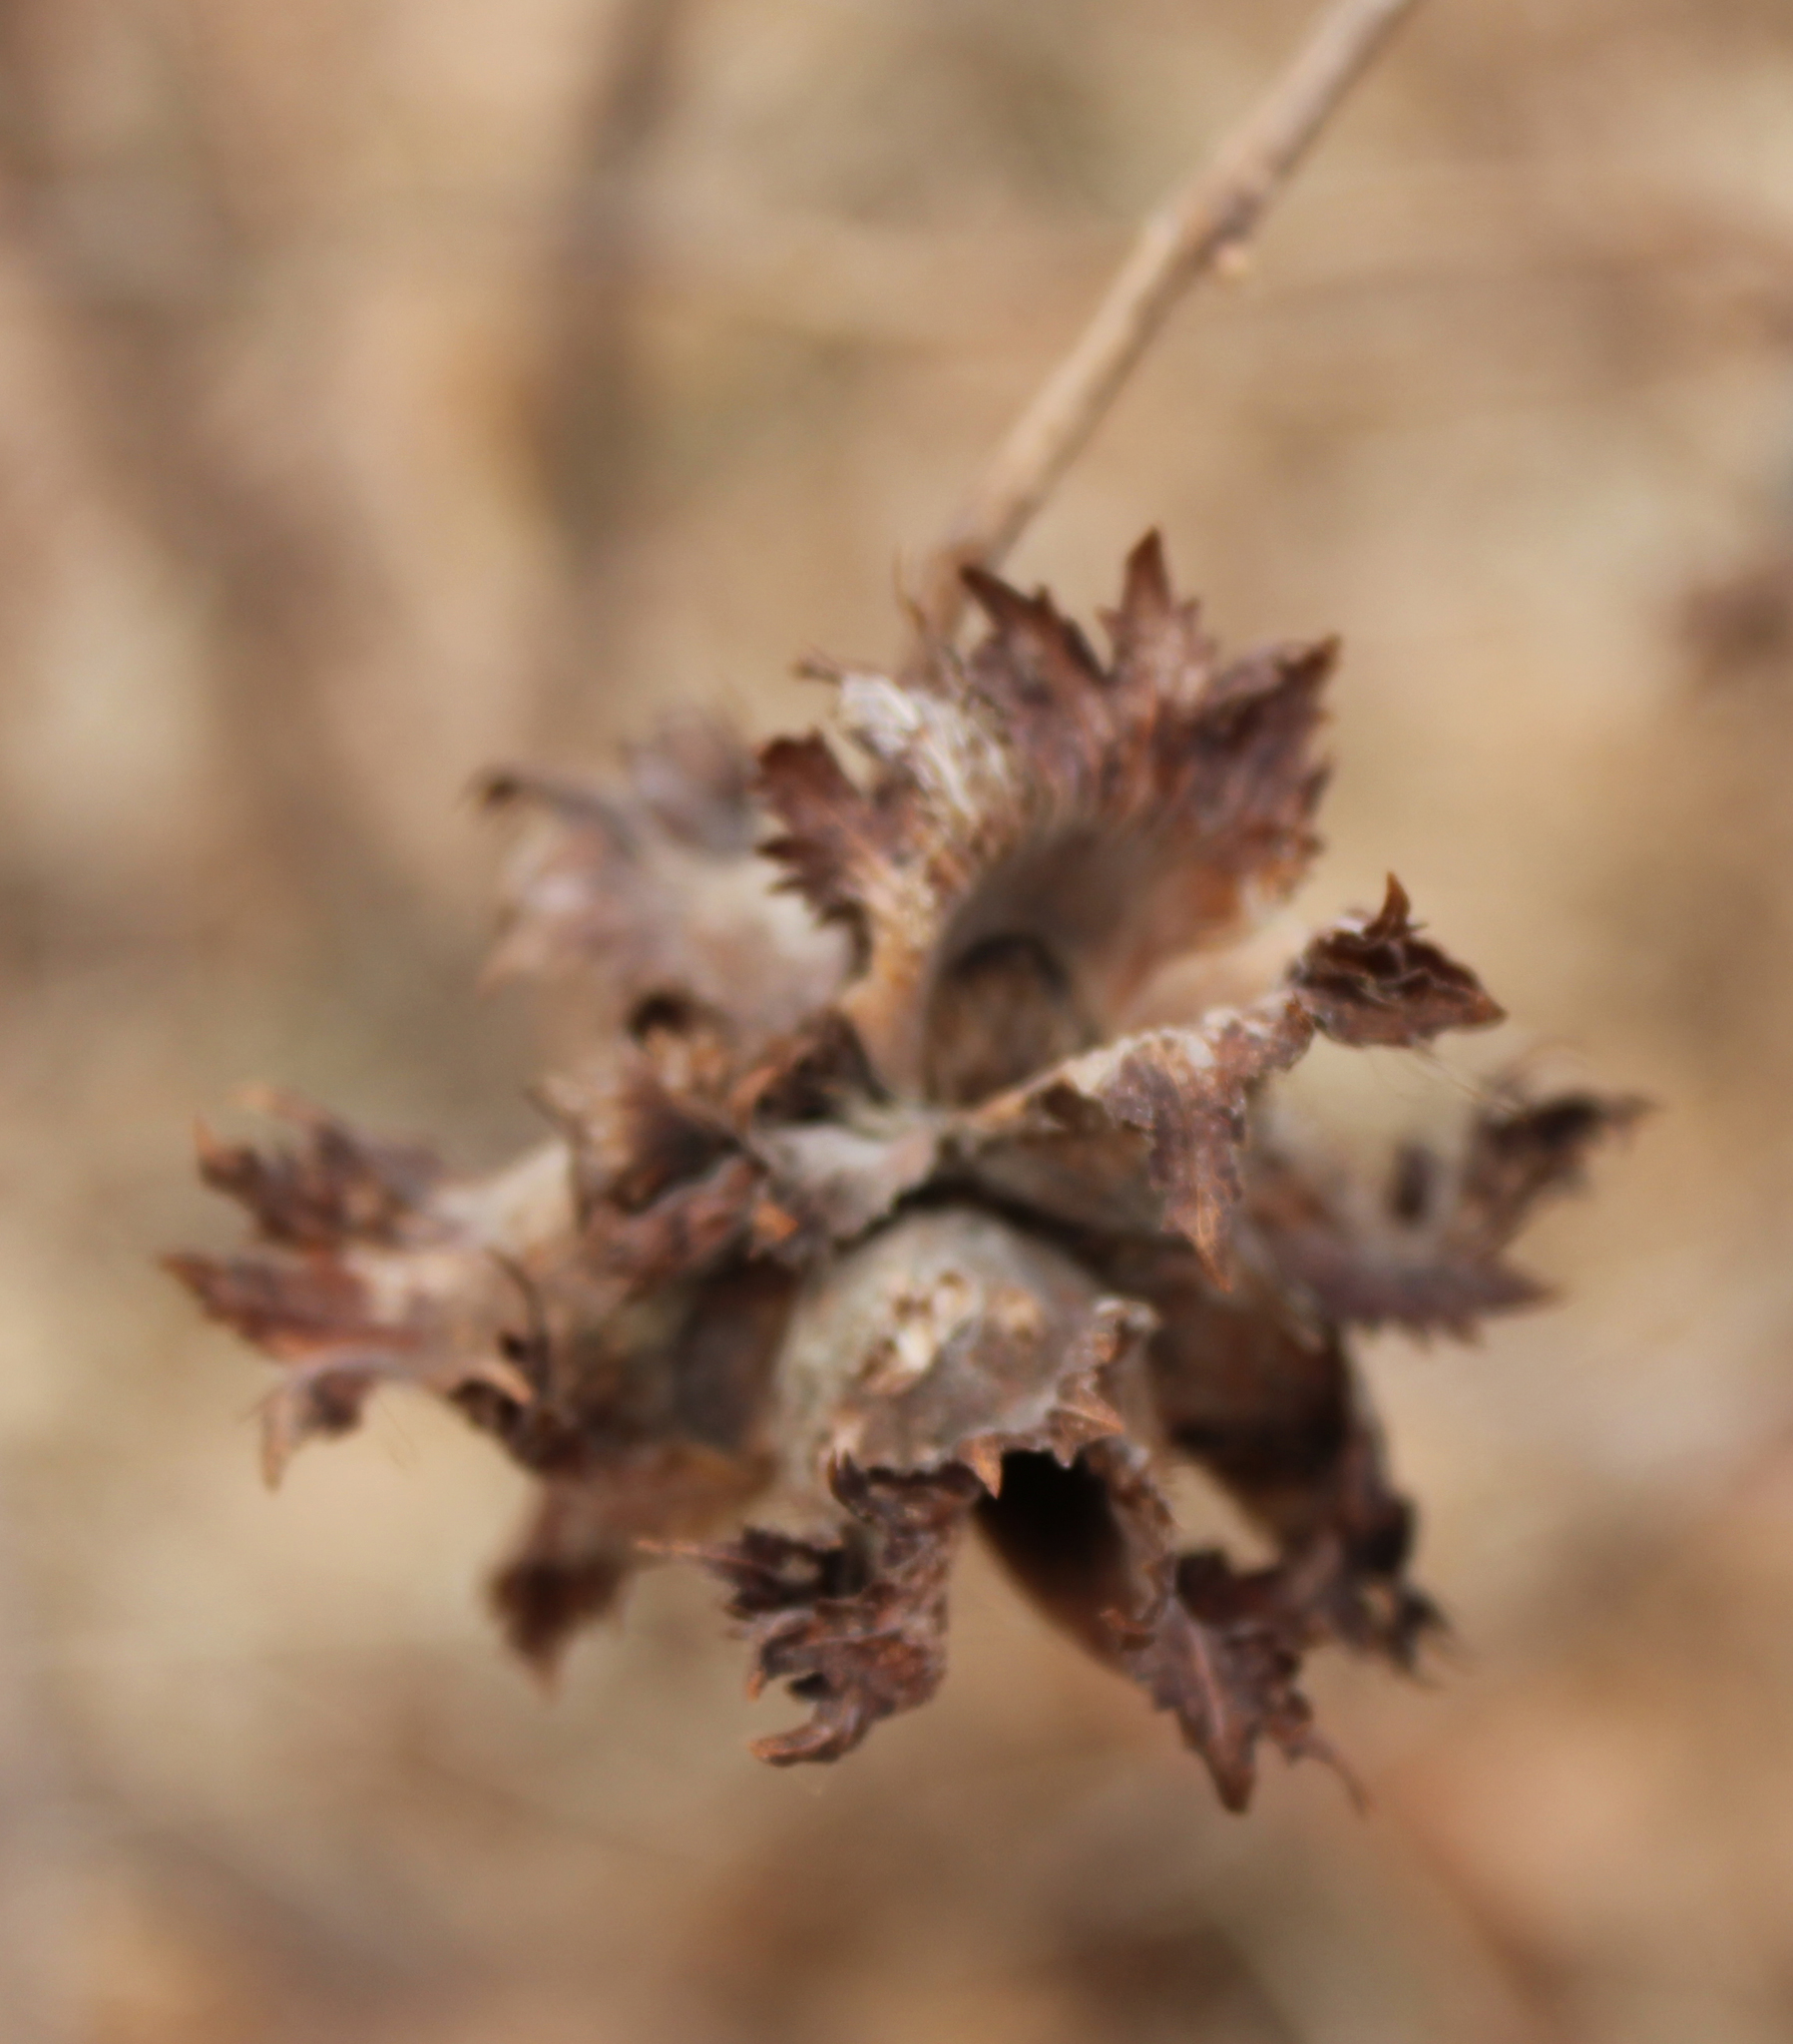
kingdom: Plantae
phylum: Tracheophyta
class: Magnoliopsida
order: Fagales
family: Betulaceae
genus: Corylus
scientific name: Corylus americana
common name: American hazel
